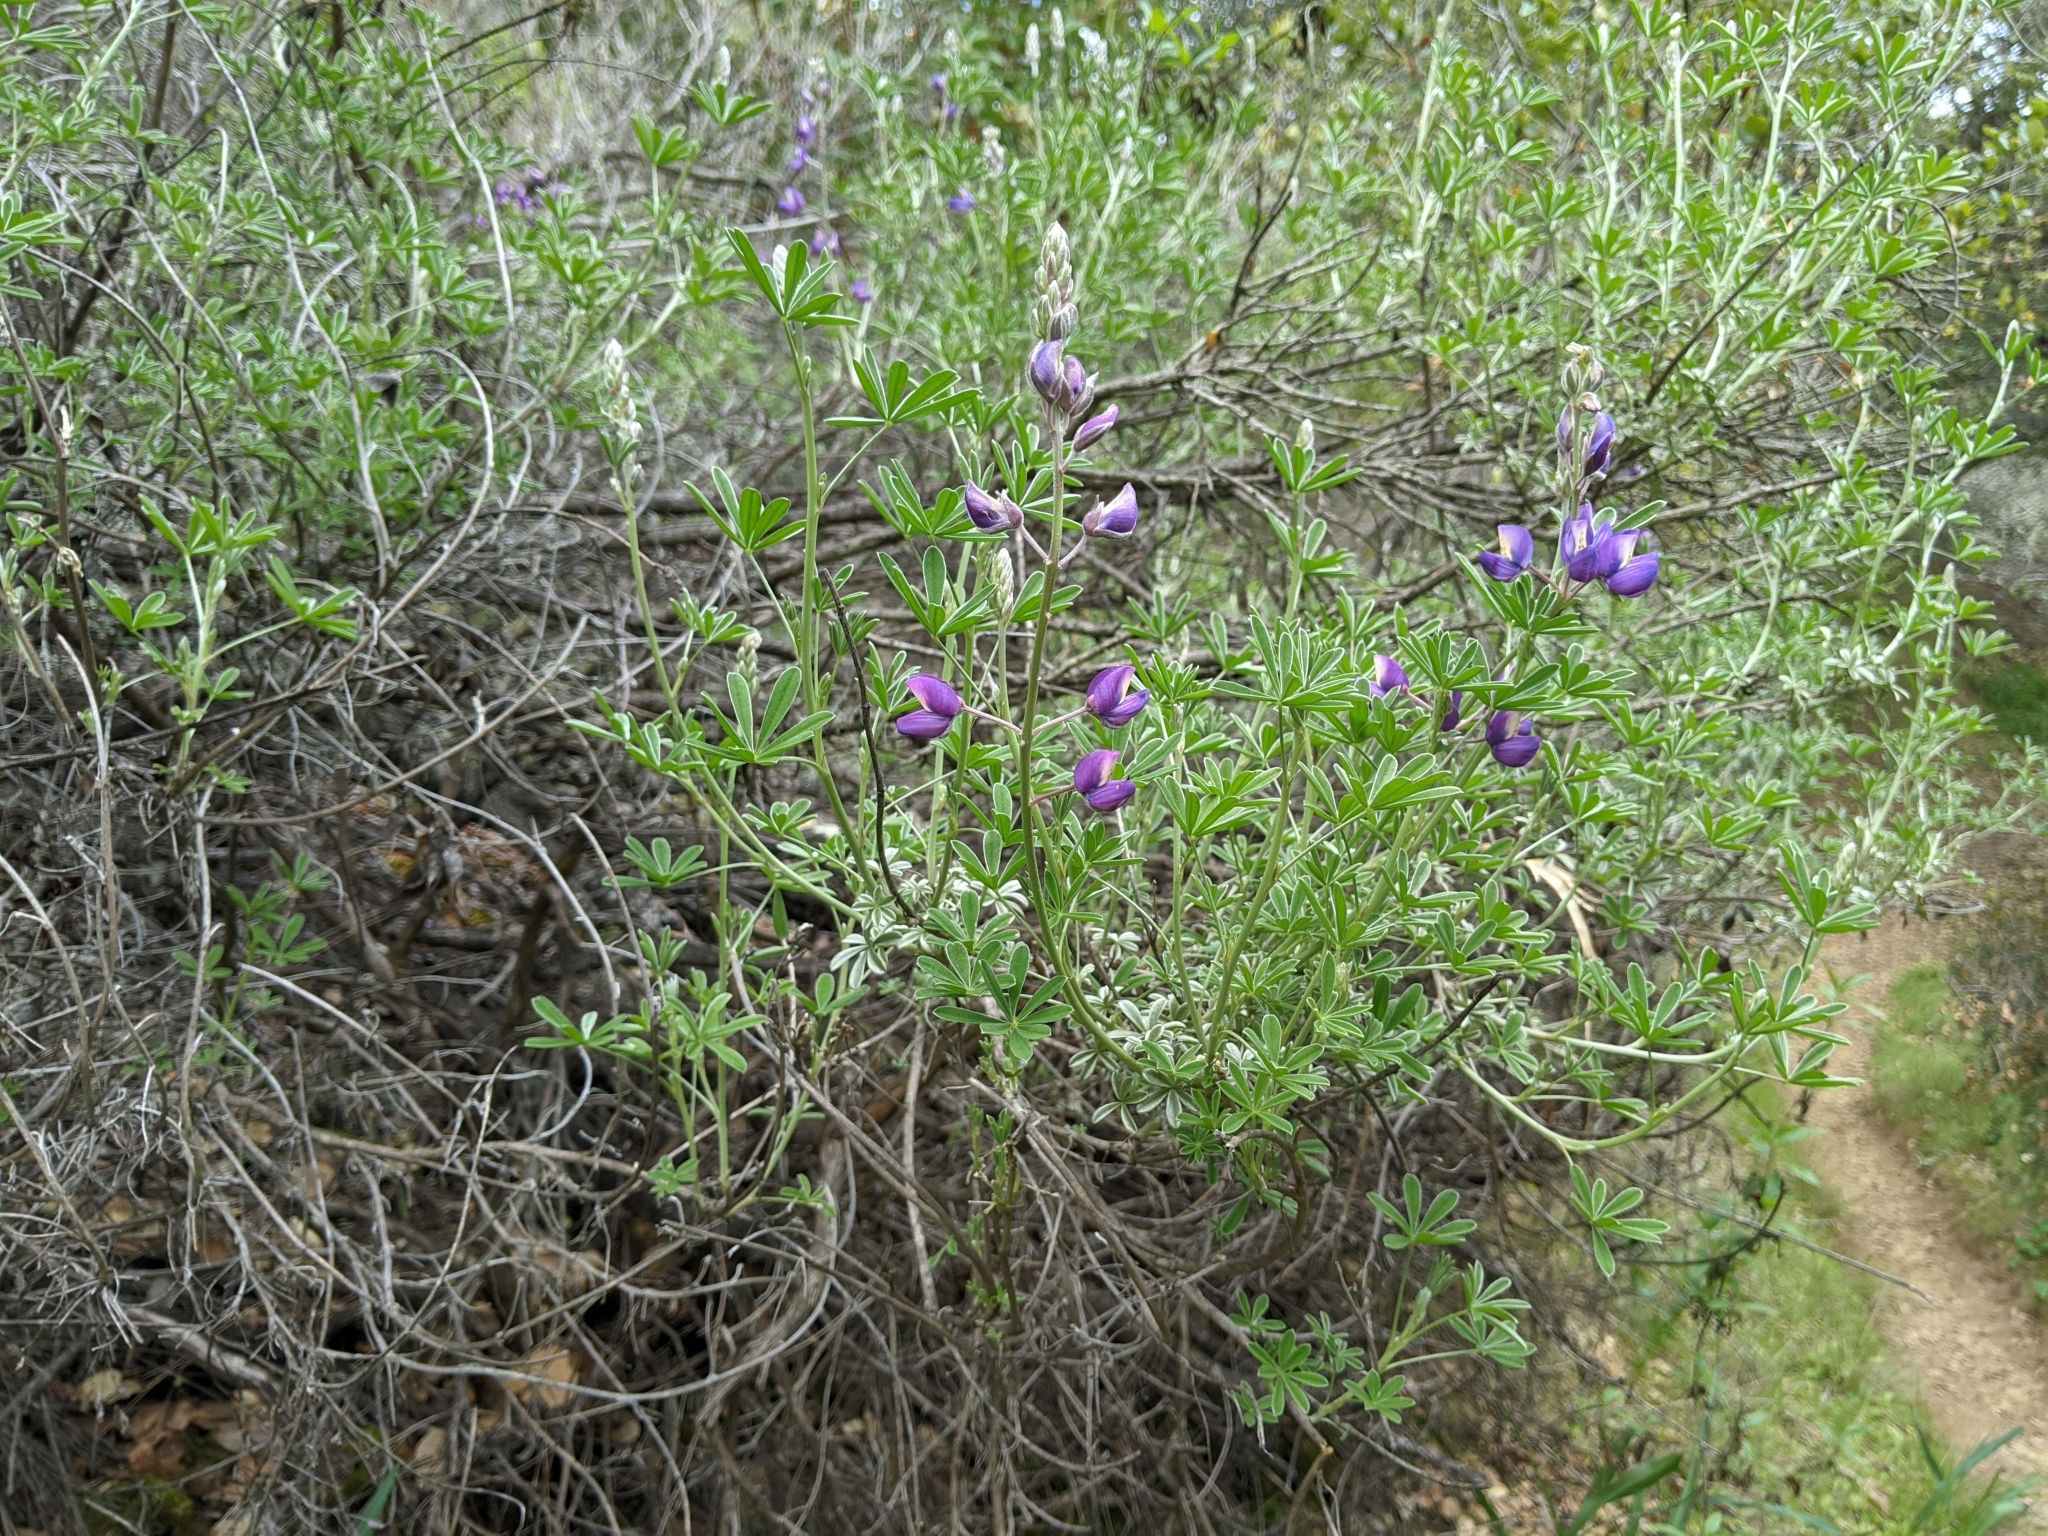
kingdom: Plantae
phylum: Tracheophyta
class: Magnoliopsida
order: Fabales
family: Fabaceae
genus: Lupinus
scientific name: Lupinus albifrons
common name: Foothill lupine
